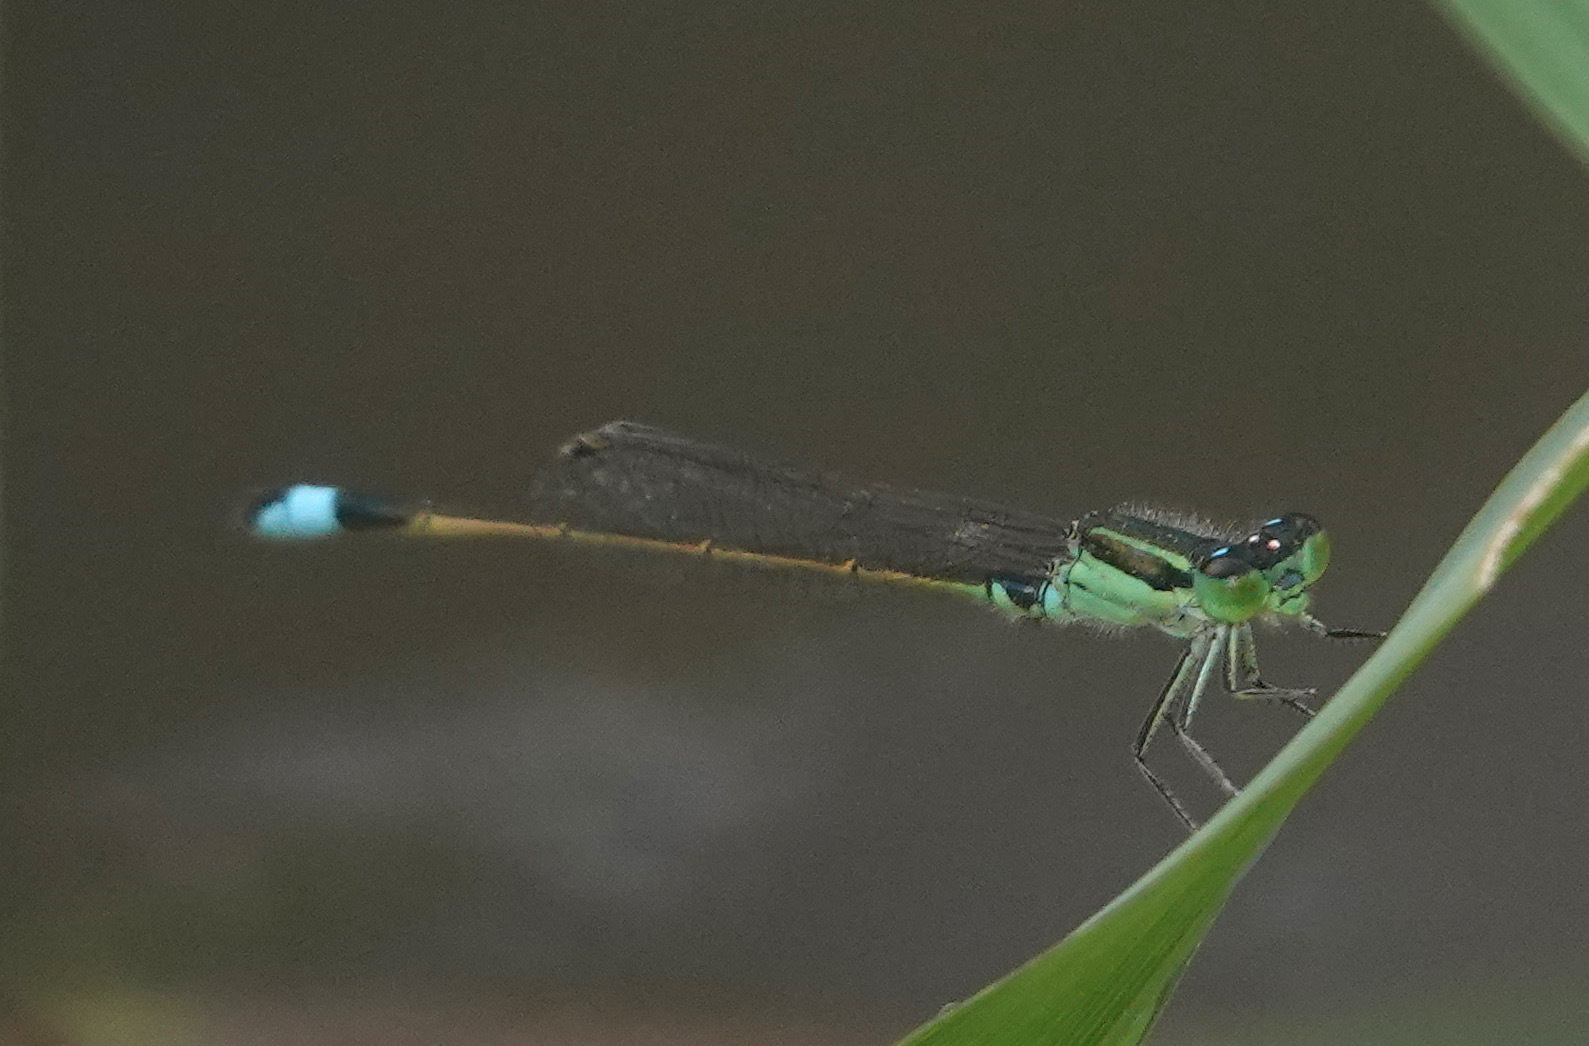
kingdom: Animalia
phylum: Arthropoda
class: Insecta
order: Odonata
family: Coenagrionidae
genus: Ischnura
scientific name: Ischnura senegalensis
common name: Tropical bluetail
